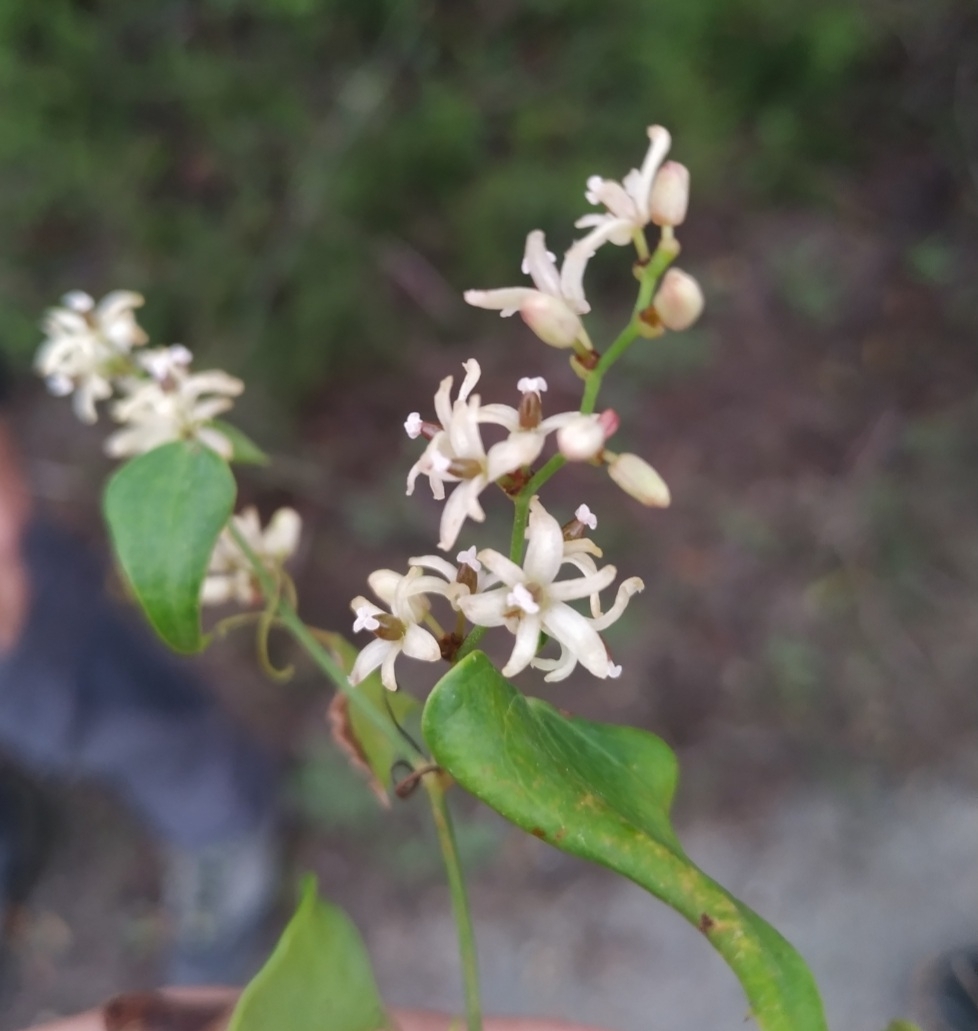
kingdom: Plantae
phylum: Tracheophyta
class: Liliopsida
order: Liliales
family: Smilacaceae
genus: Smilax
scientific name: Smilax aspera
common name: Common smilax
